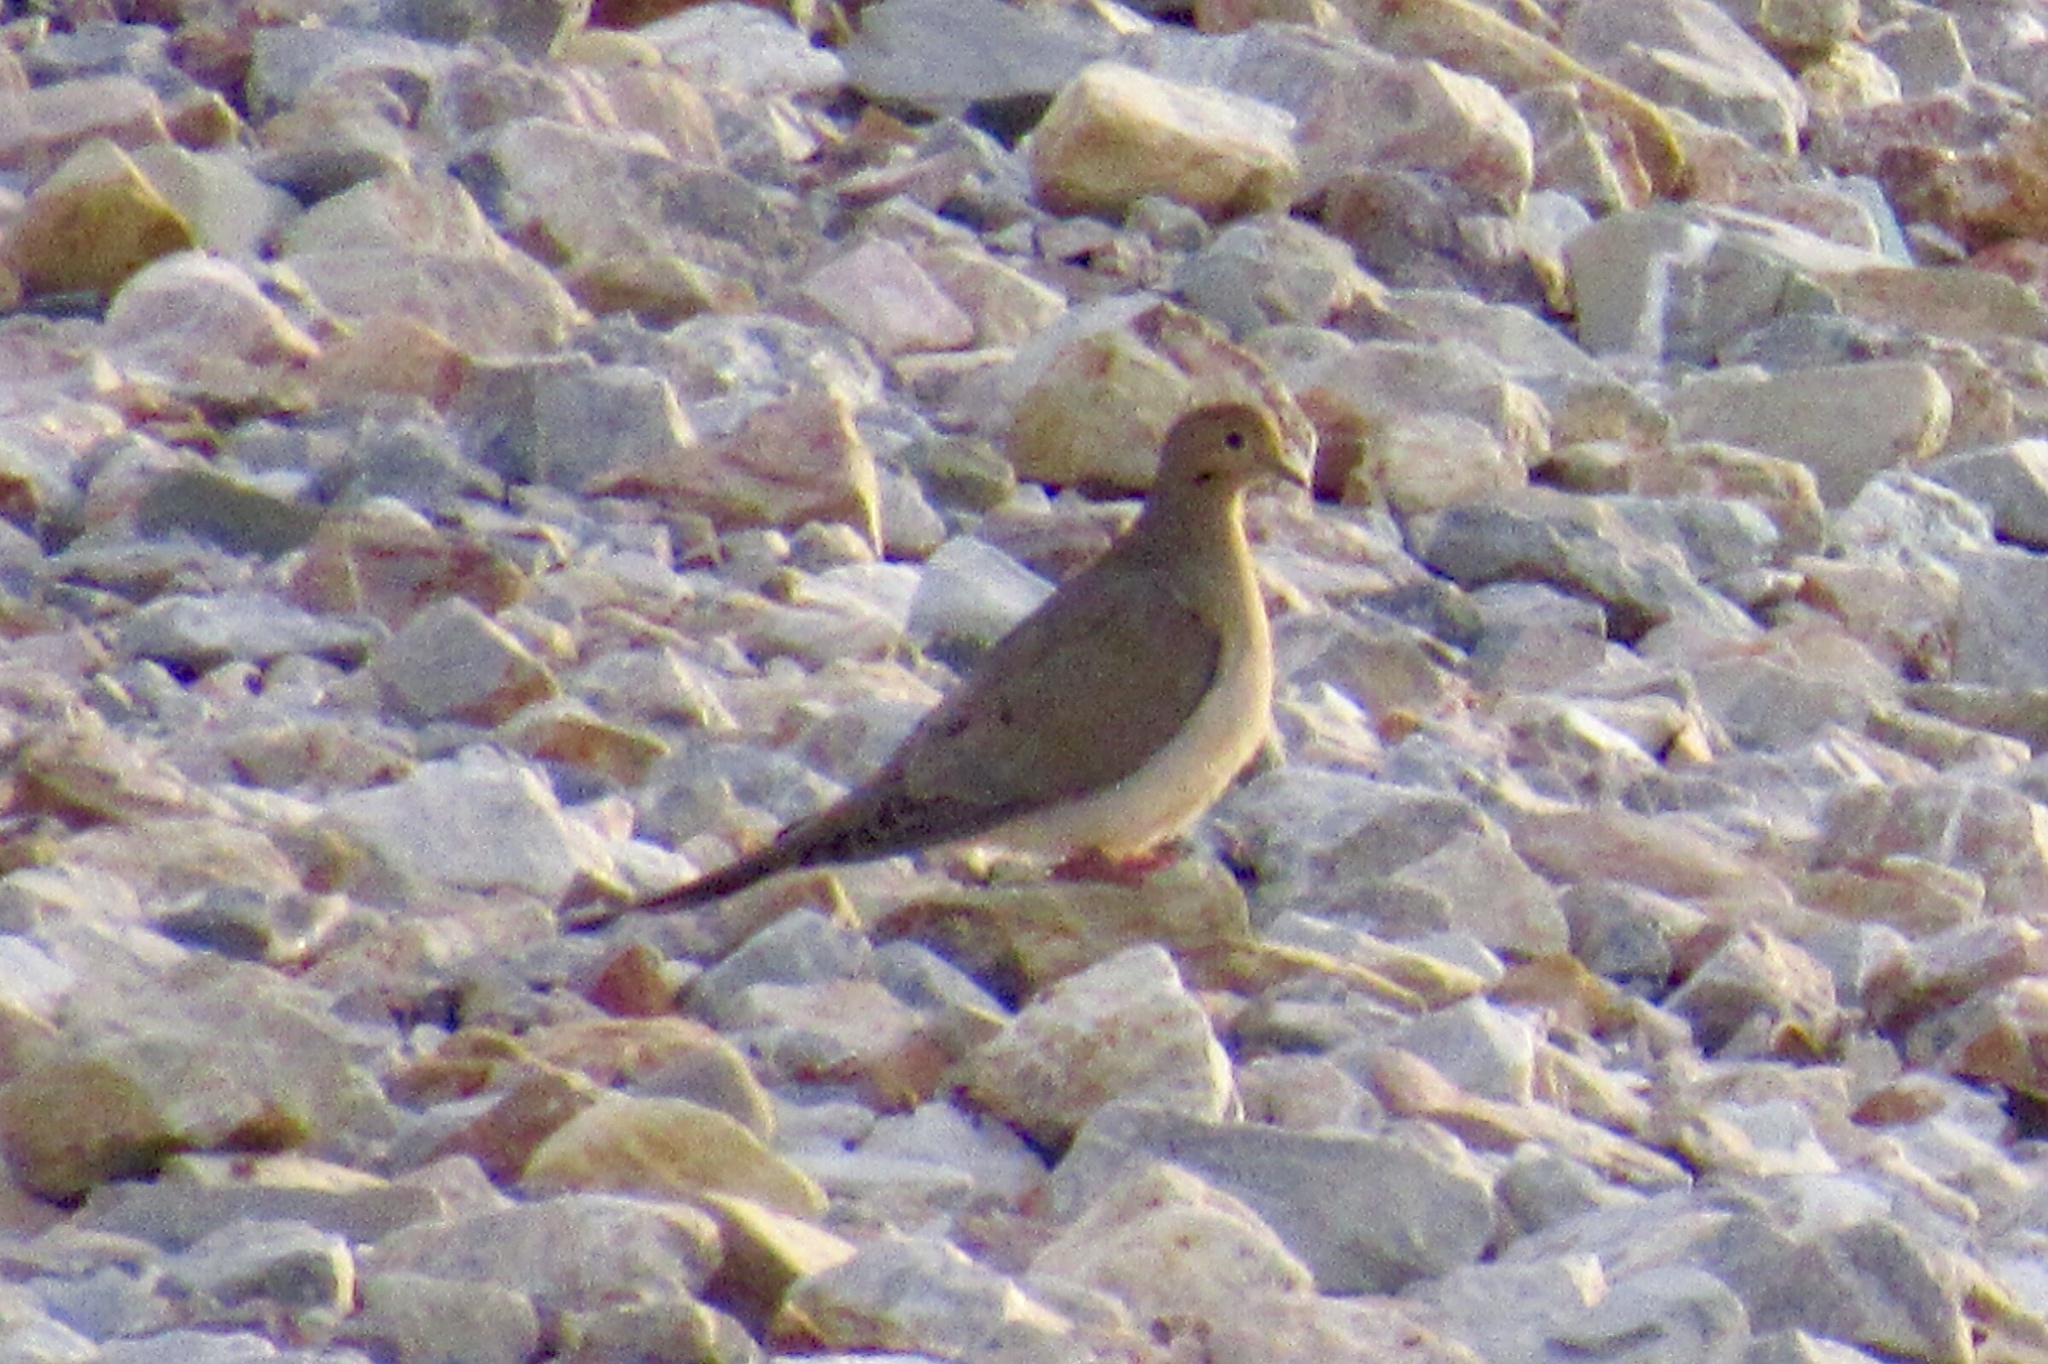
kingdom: Animalia
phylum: Chordata
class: Aves
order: Columbiformes
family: Columbidae
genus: Zenaida
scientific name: Zenaida macroura
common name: Mourning dove
